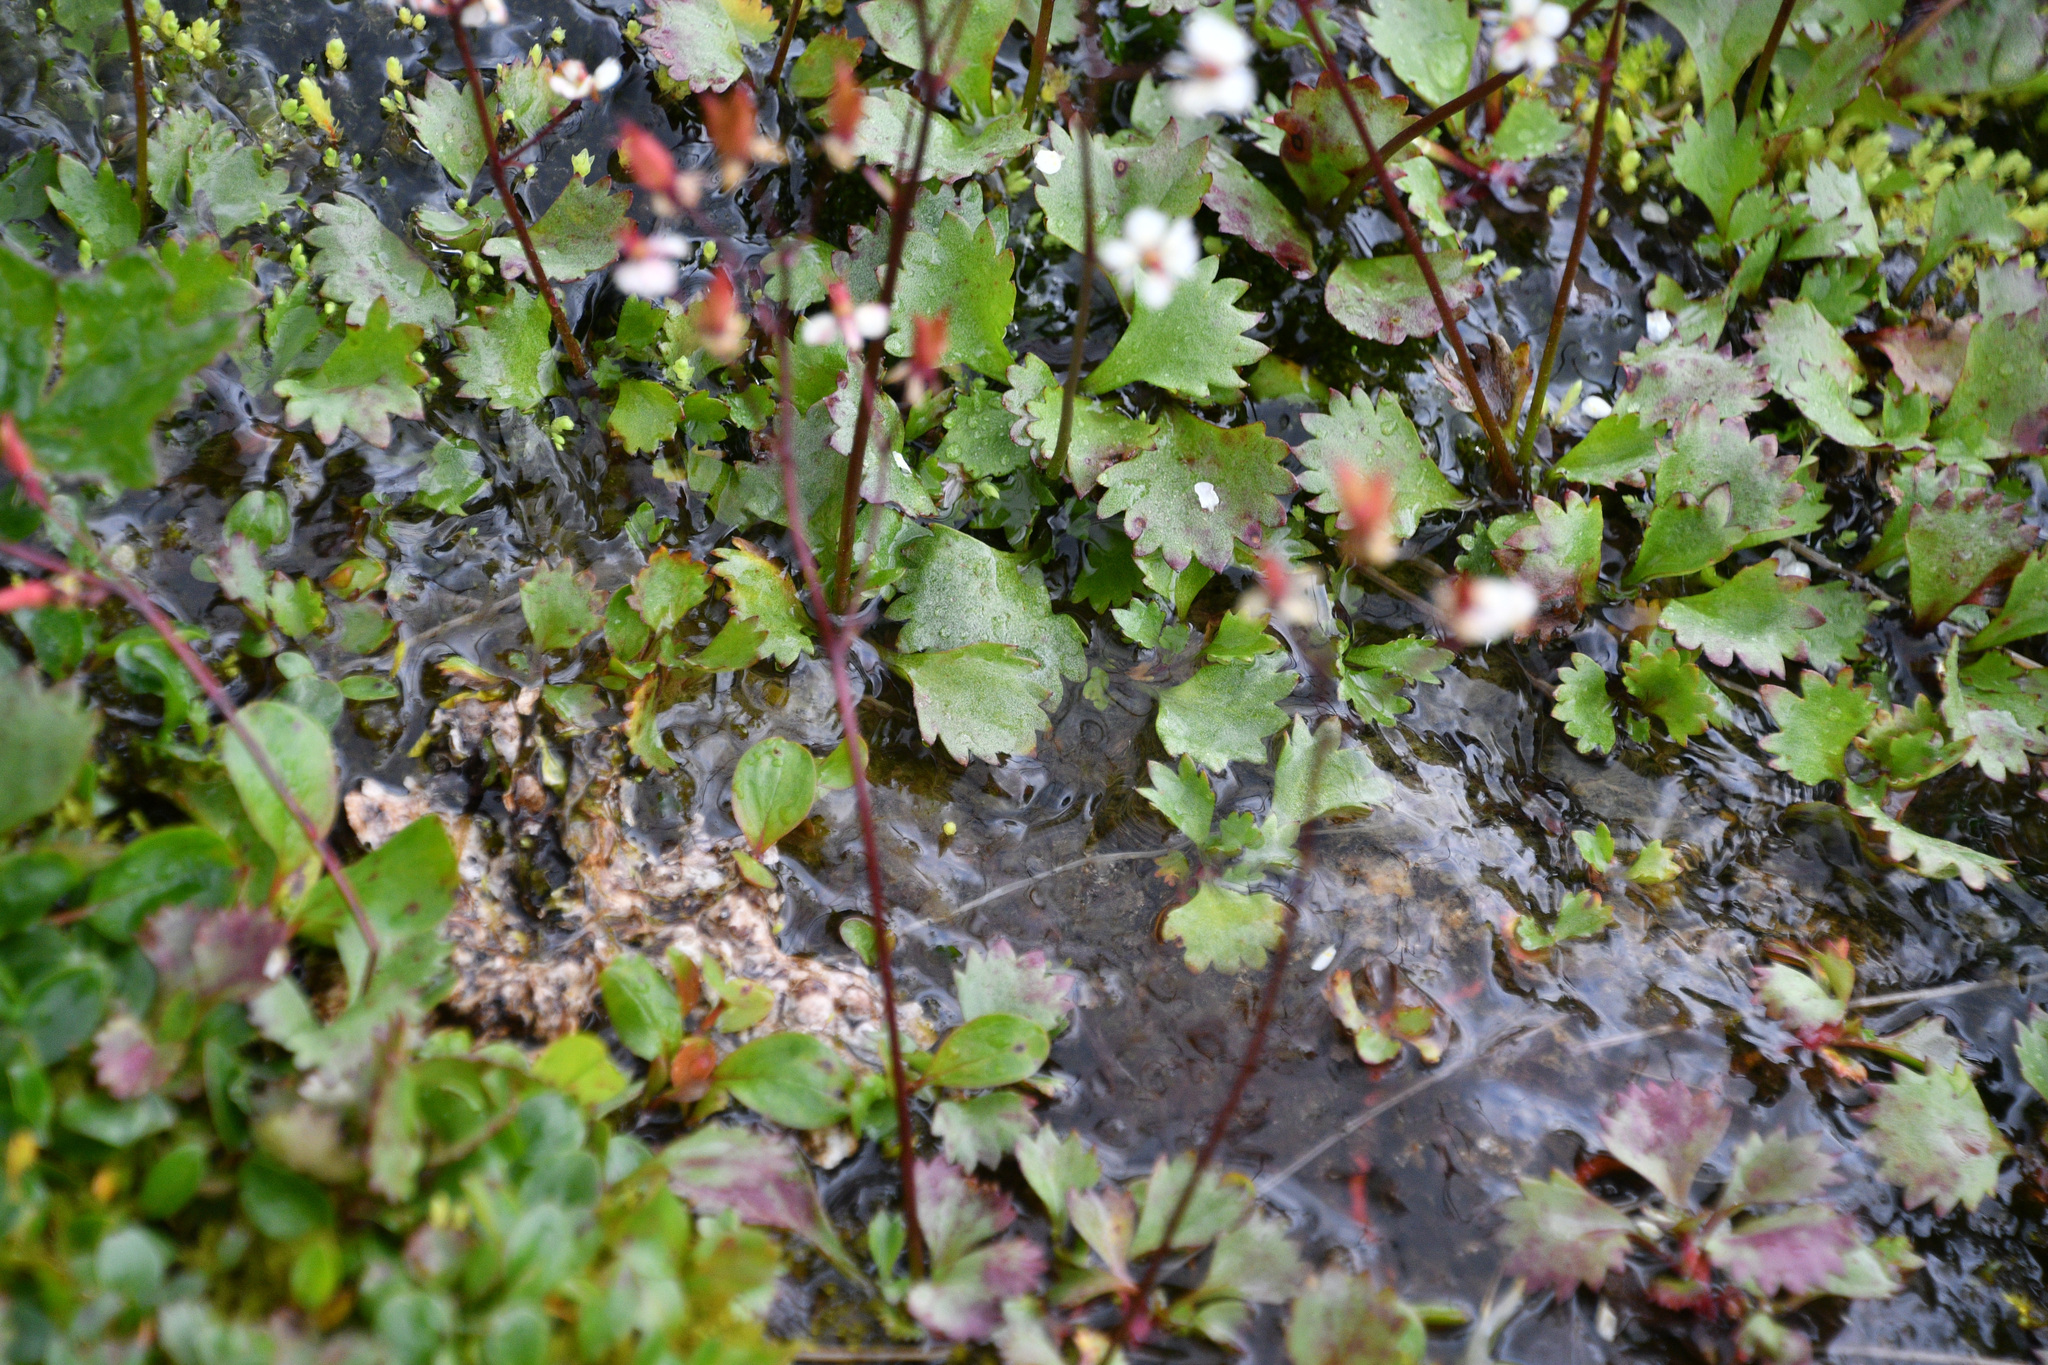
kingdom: Plantae
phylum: Tracheophyta
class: Magnoliopsida
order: Saxifragales
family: Saxifragaceae
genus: Micranthes
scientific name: Micranthes lyallii
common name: Lyall's saxifrage
